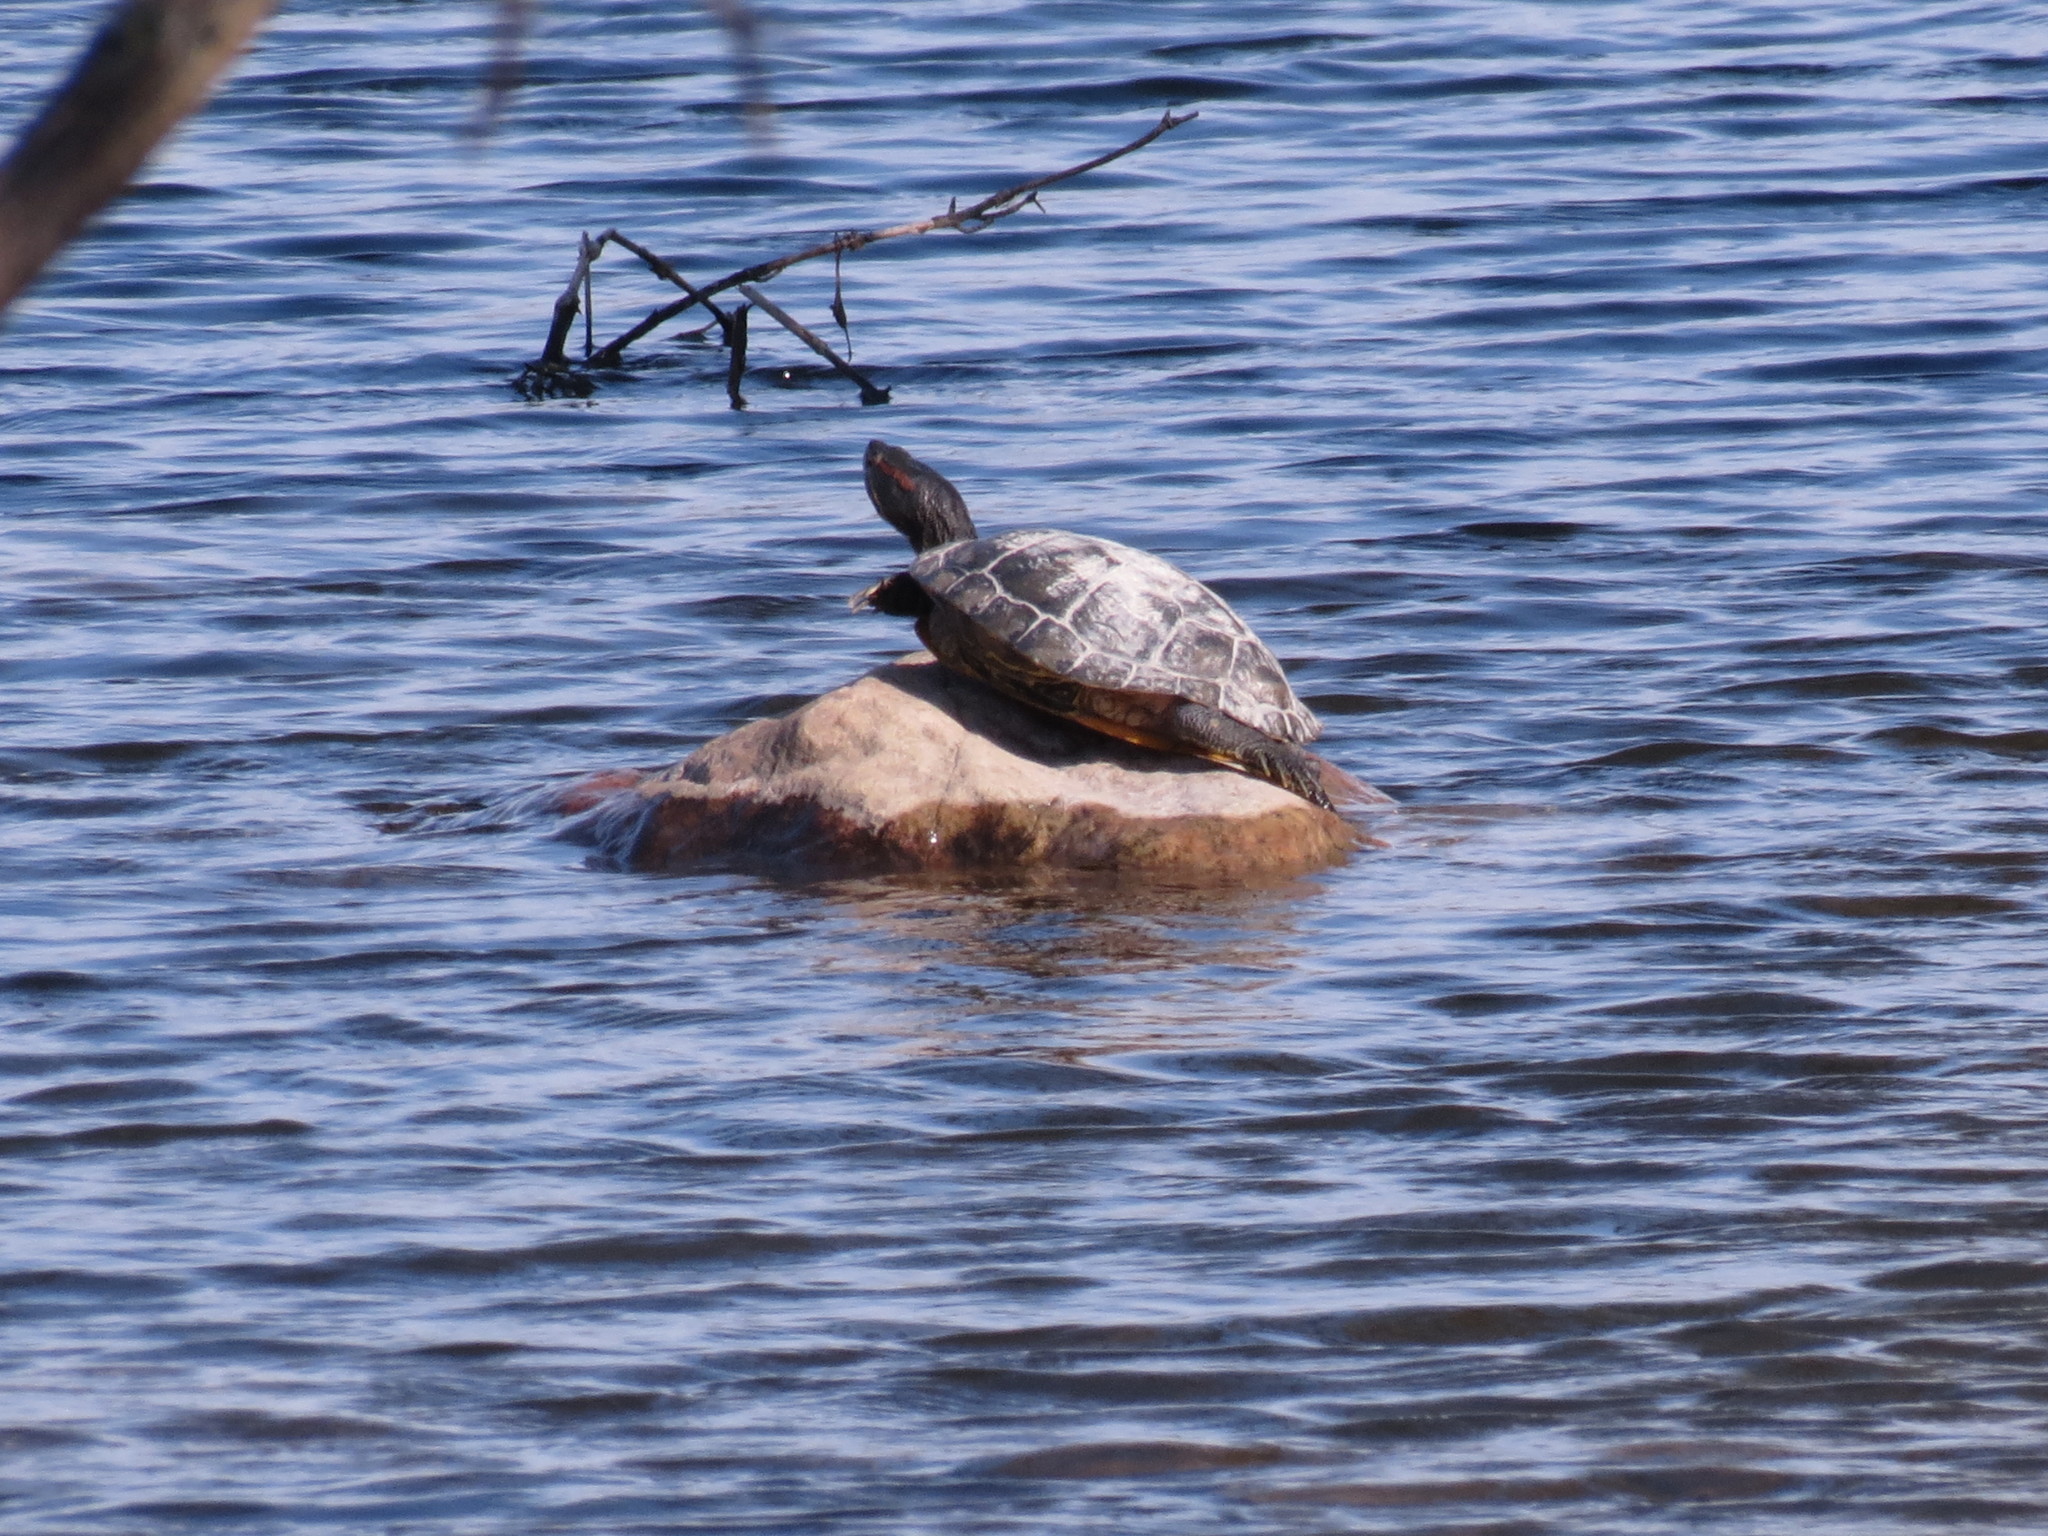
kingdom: Animalia
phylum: Chordata
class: Testudines
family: Emydidae
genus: Trachemys
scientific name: Trachemys scripta
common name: Slider
